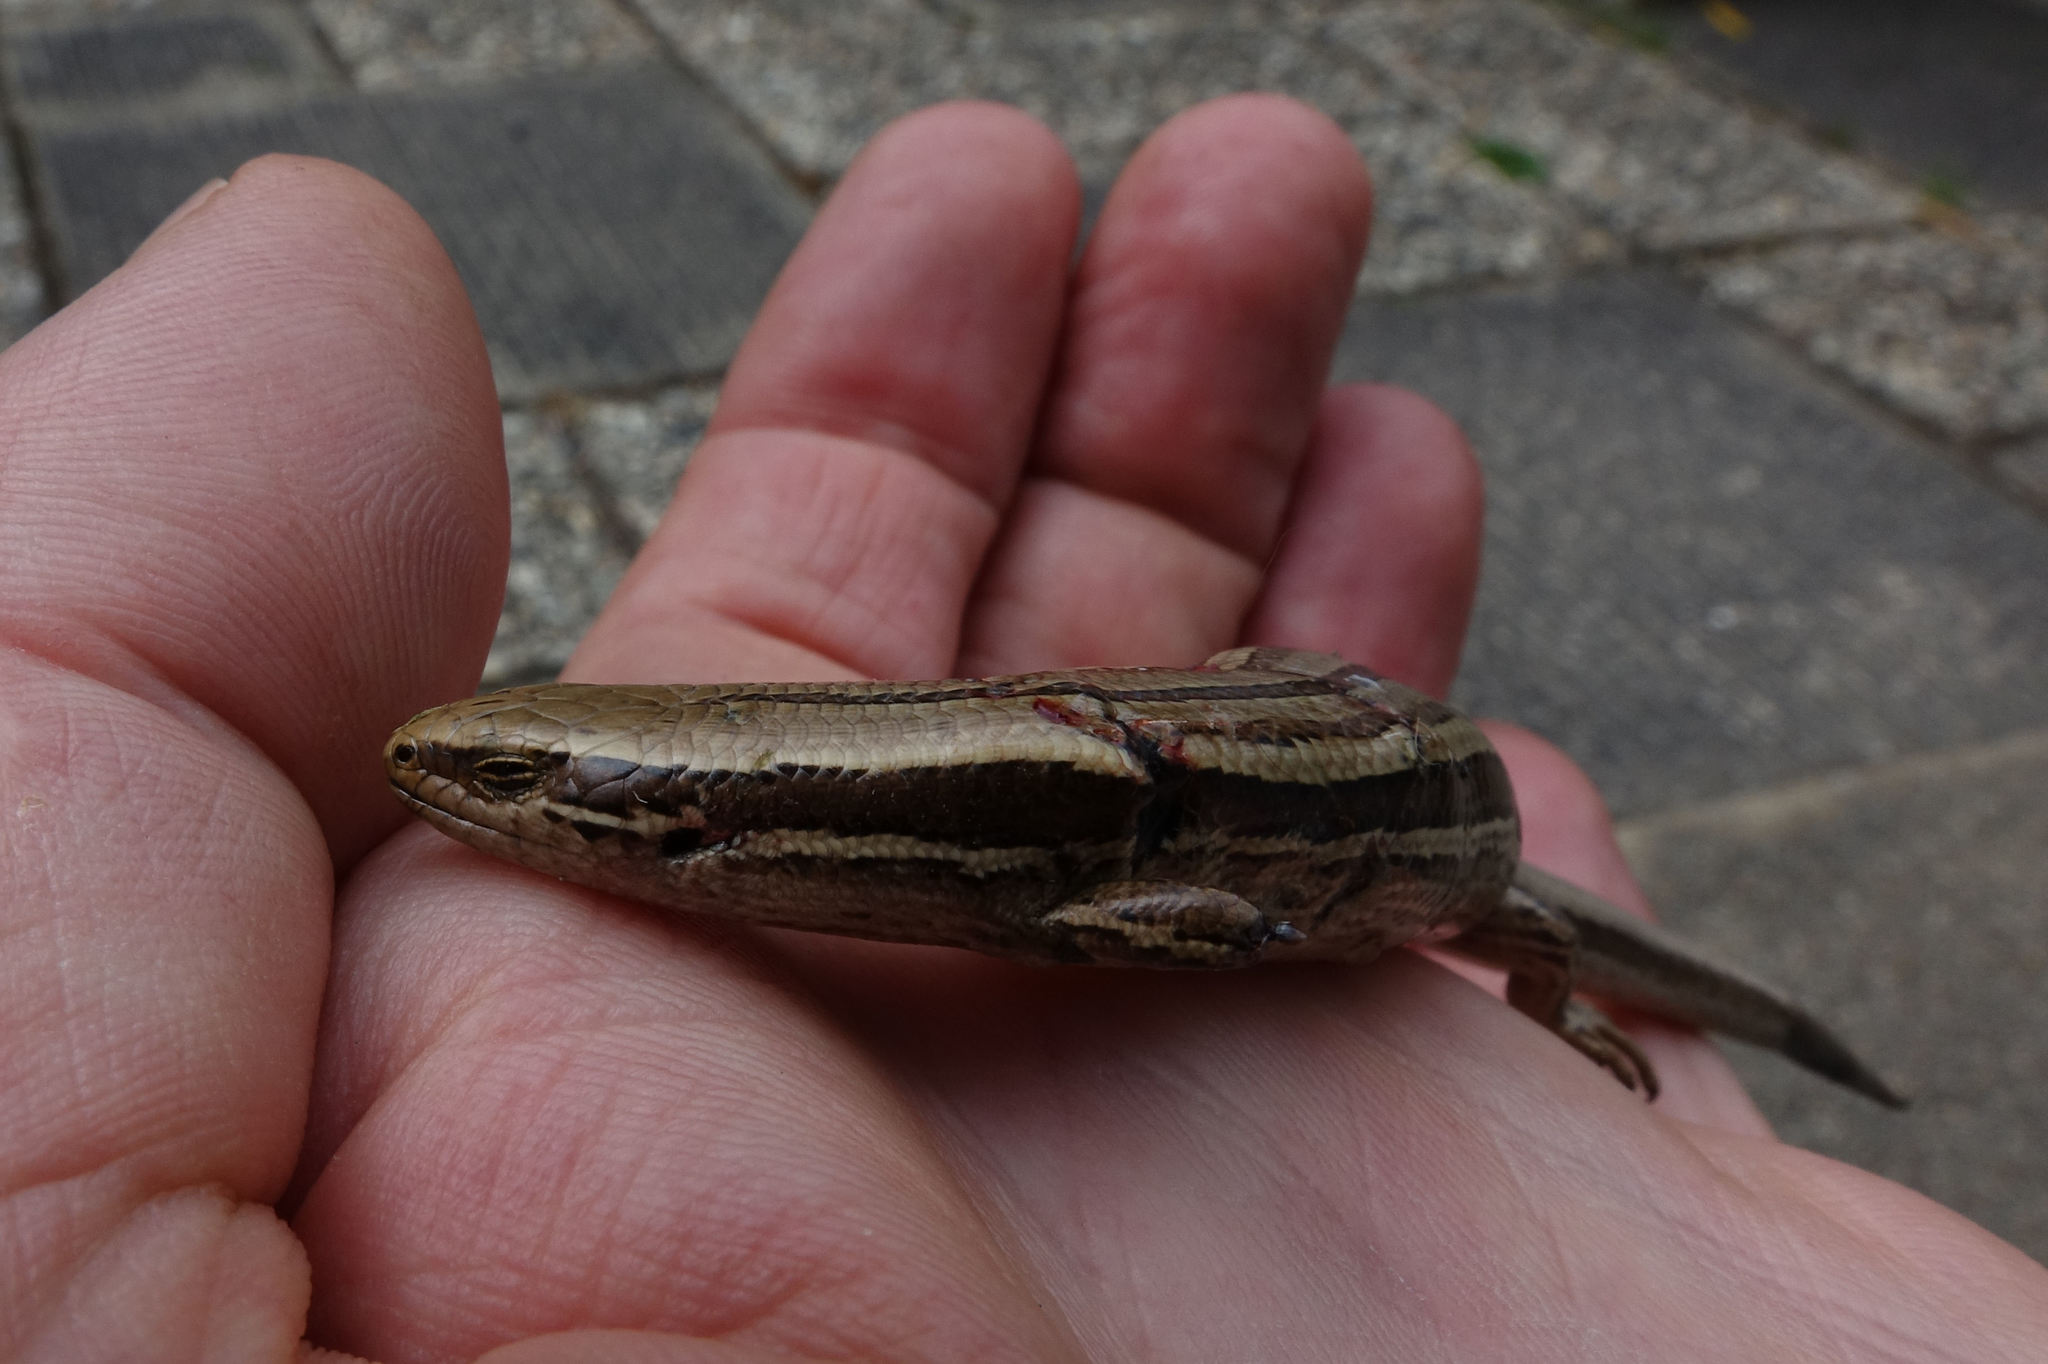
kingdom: Animalia
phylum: Chordata
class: Squamata
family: Scincidae
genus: Oligosoma
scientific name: Oligosoma polychroma
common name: Common new zealand skink
